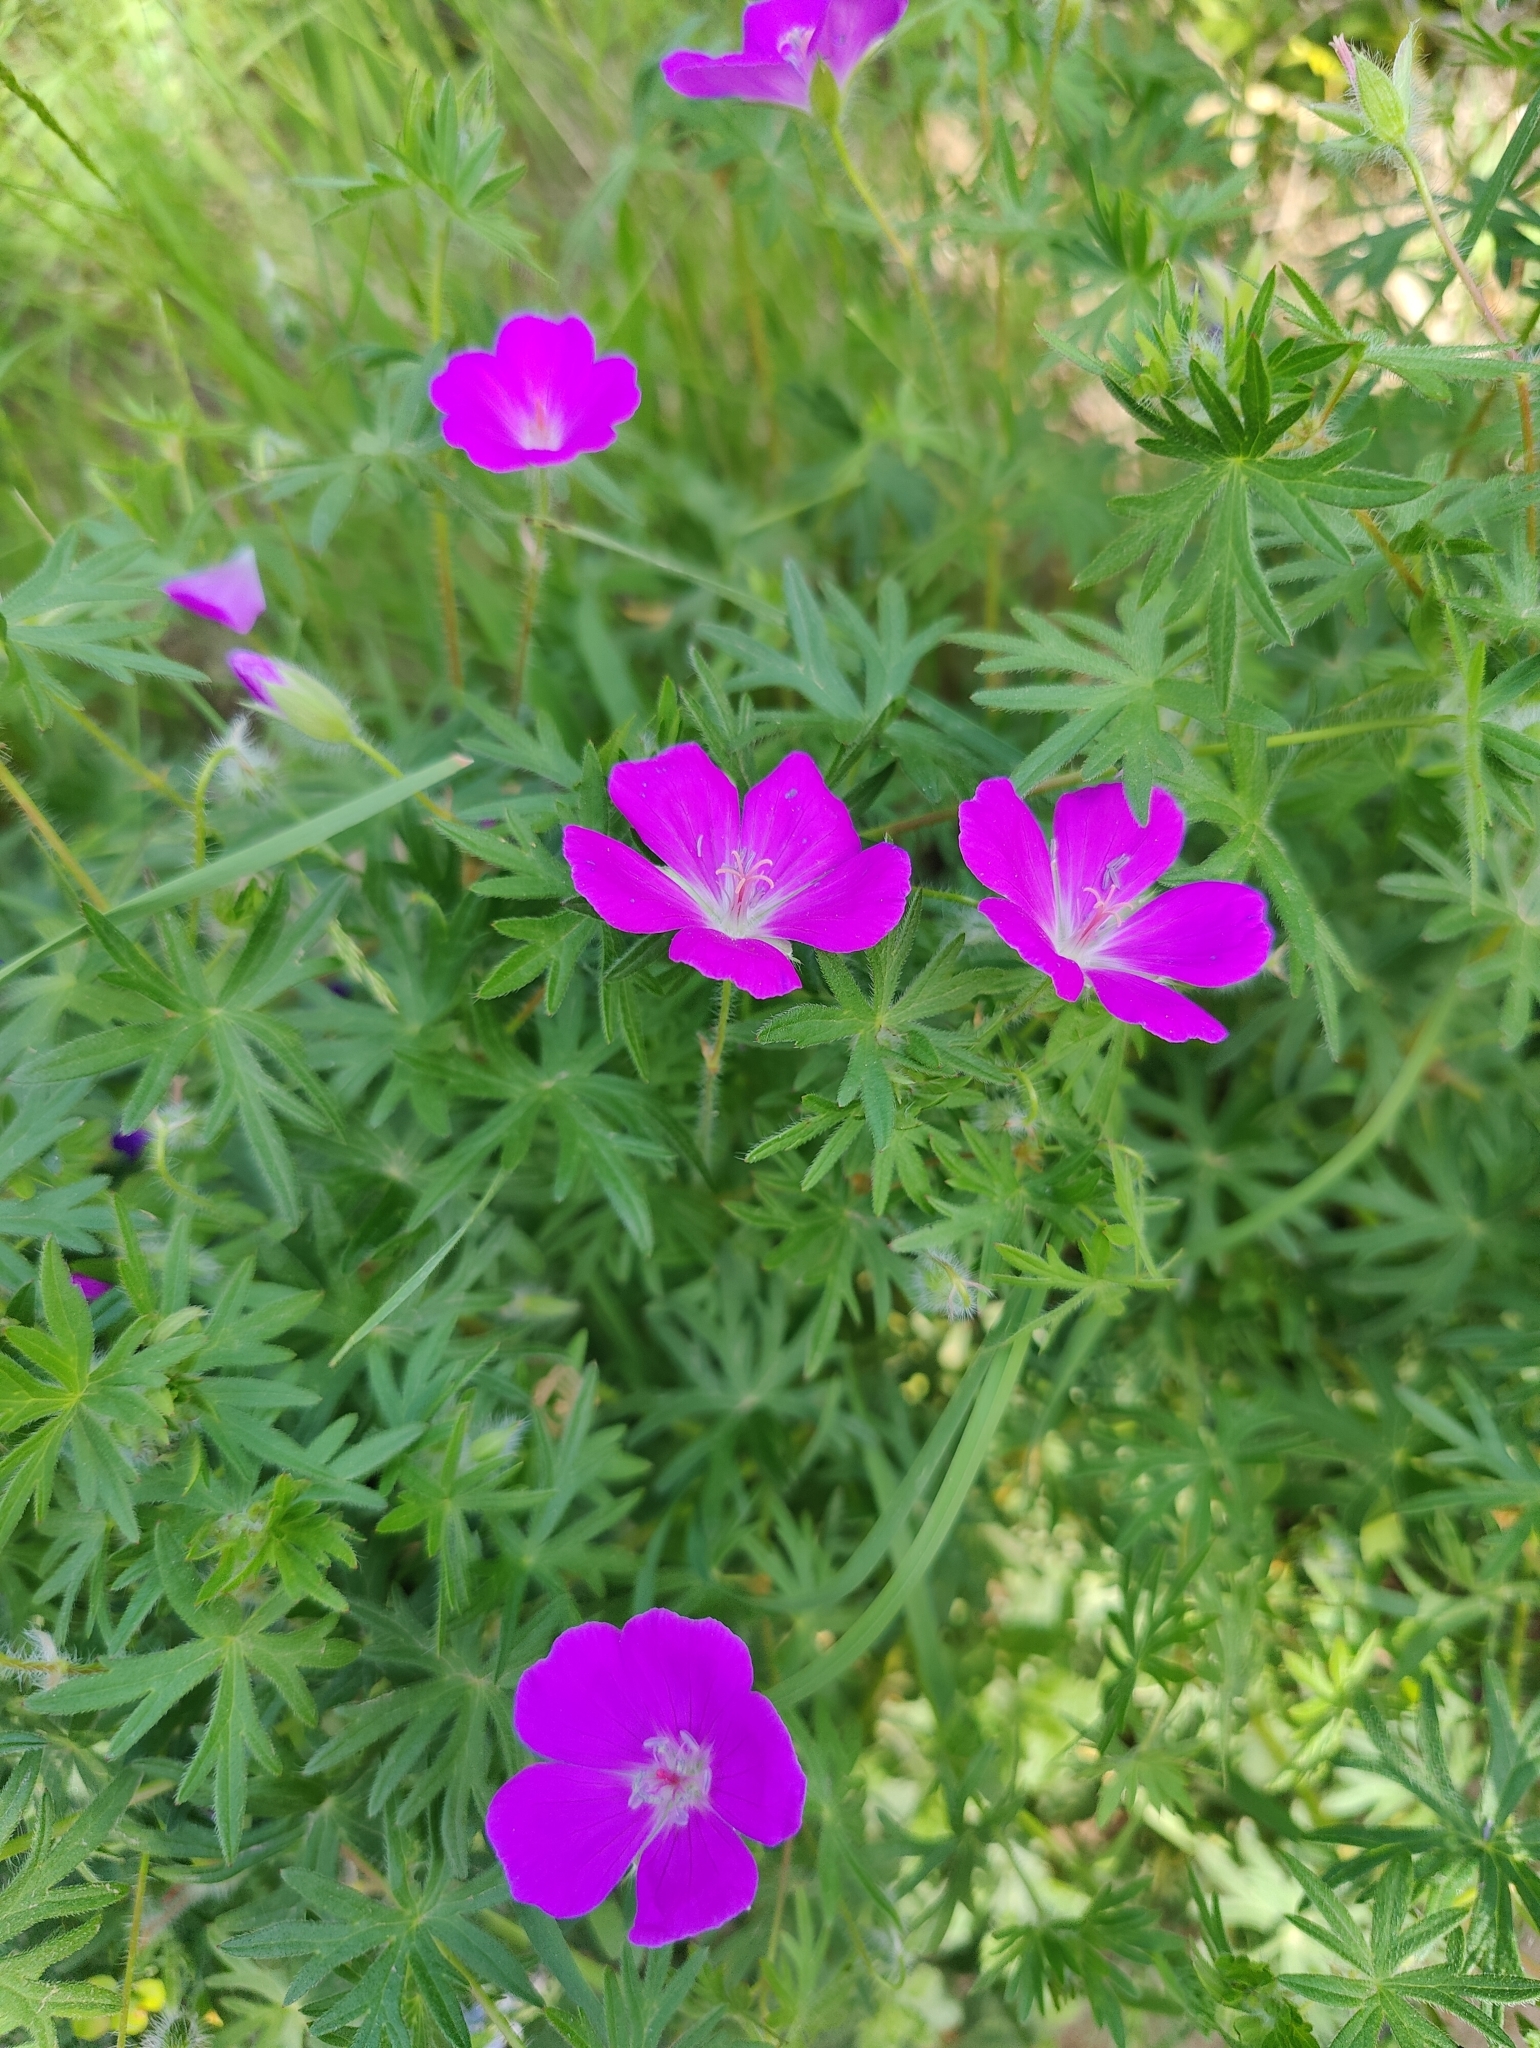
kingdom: Plantae
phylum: Tracheophyta
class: Magnoliopsida
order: Geraniales
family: Geraniaceae
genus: Geranium
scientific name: Geranium sanguineum
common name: Bloody crane's-bill
